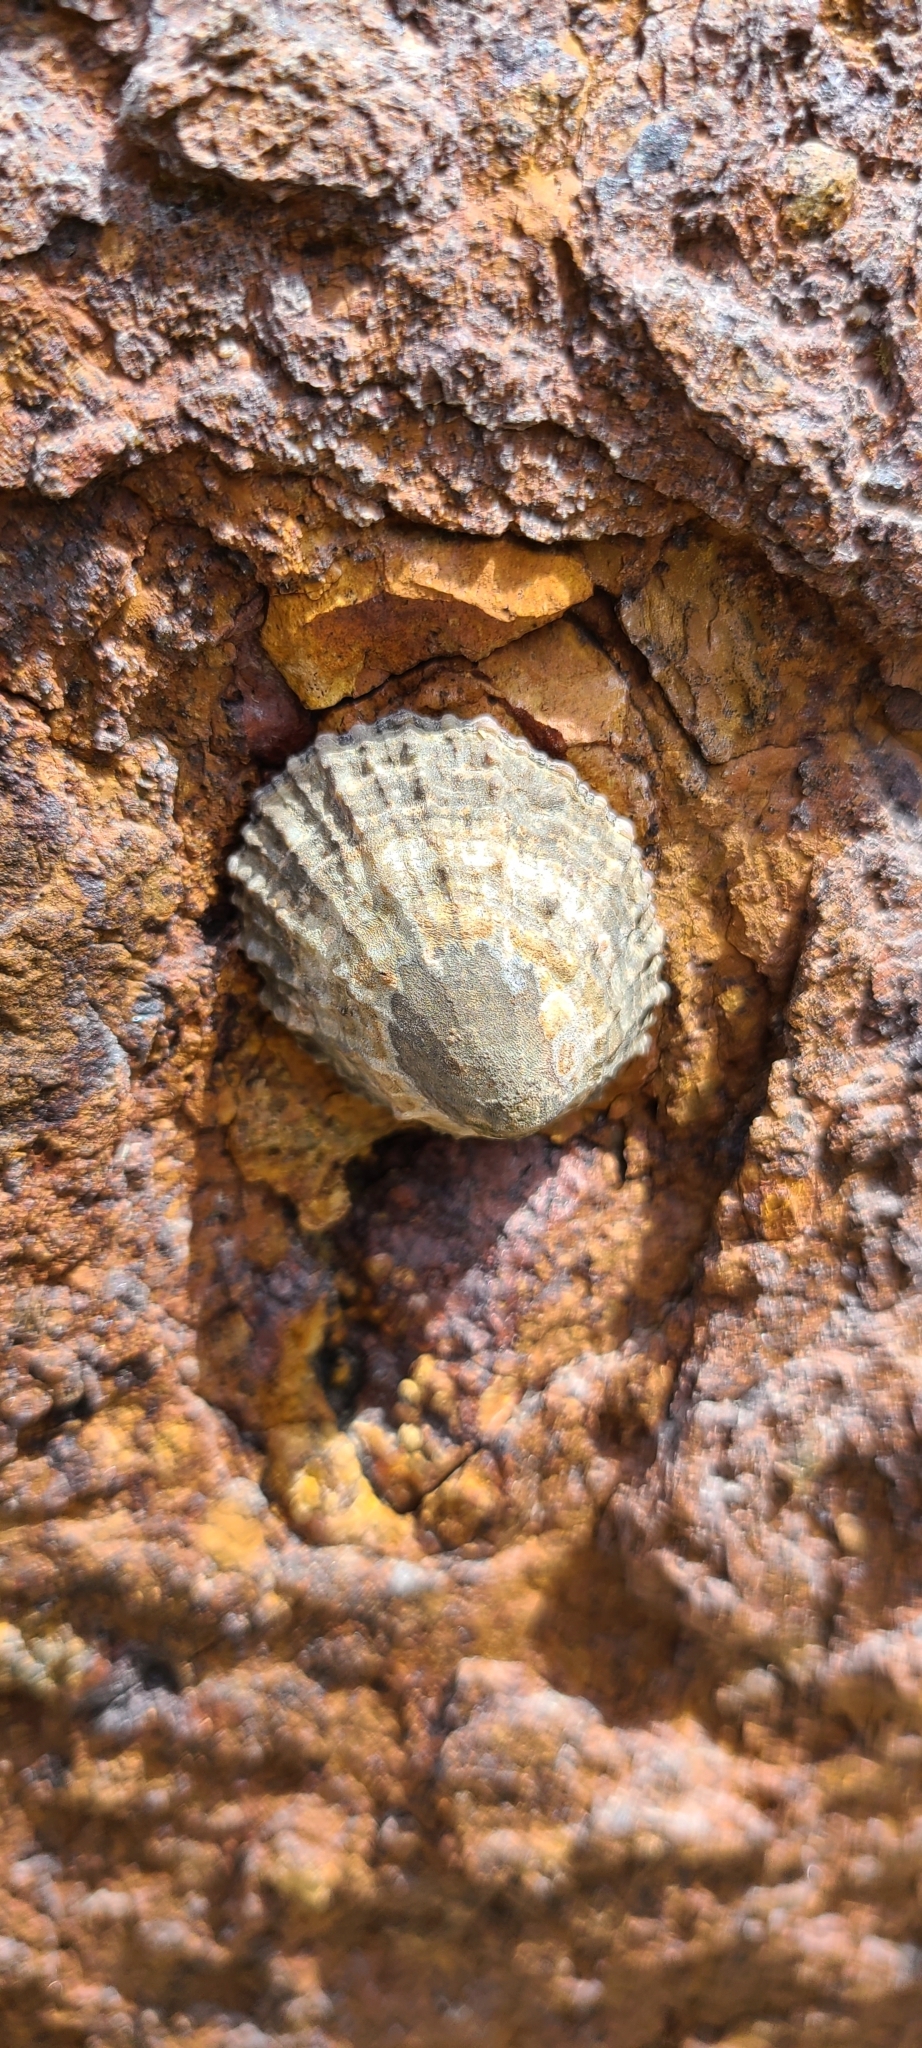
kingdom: Animalia
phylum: Mollusca
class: Gastropoda
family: Nacellidae
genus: Cellana
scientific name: Cellana ornata
